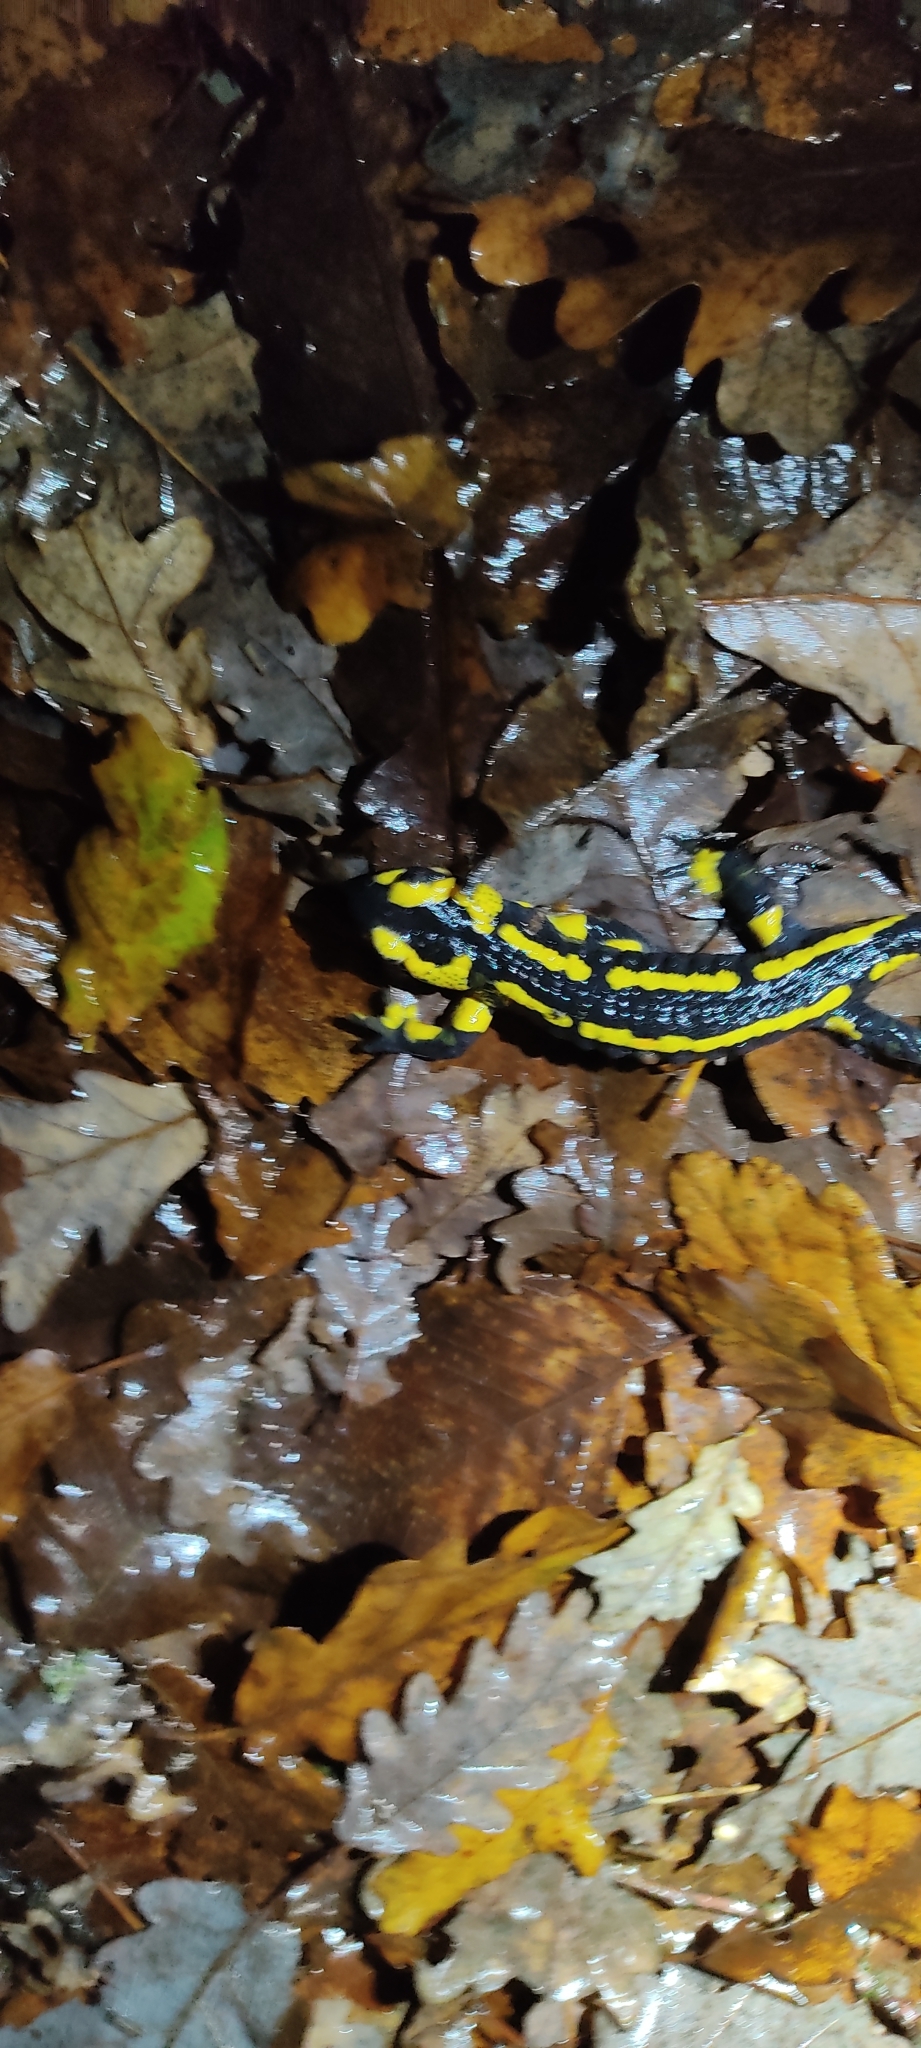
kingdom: Animalia
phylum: Chordata
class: Amphibia
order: Caudata
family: Salamandridae
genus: Salamandra
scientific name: Salamandra salamandra
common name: Fire salamander
